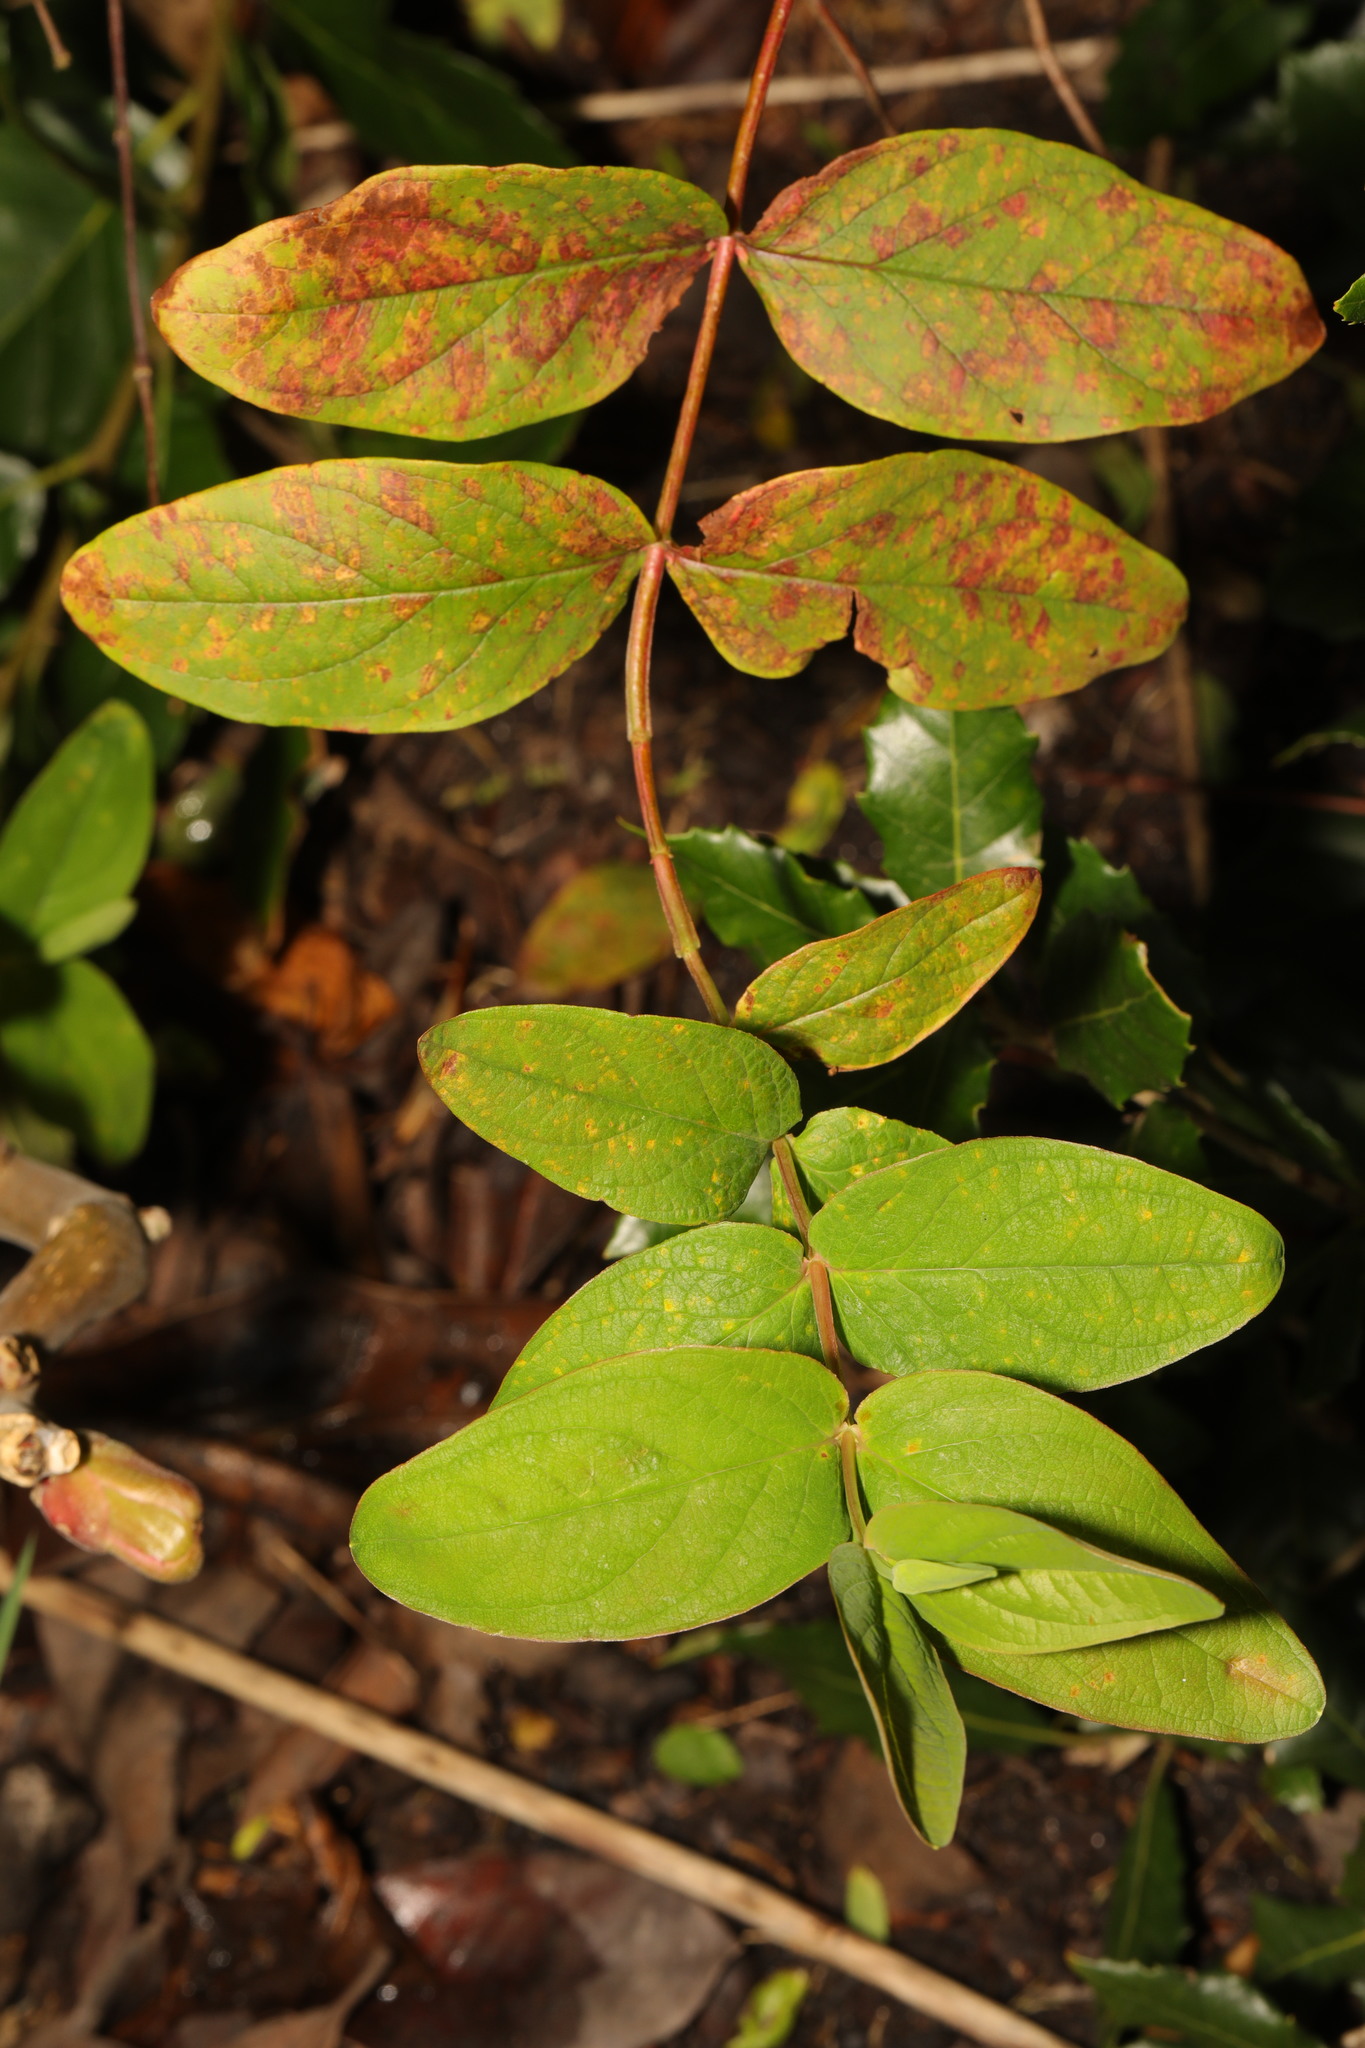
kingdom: Plantae
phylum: Tracheophyta
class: Magnoliopsida
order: Malpighiales
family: Hypericaceae
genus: Hypericum
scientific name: Hypericum androsaemum
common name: Sweet-amber
